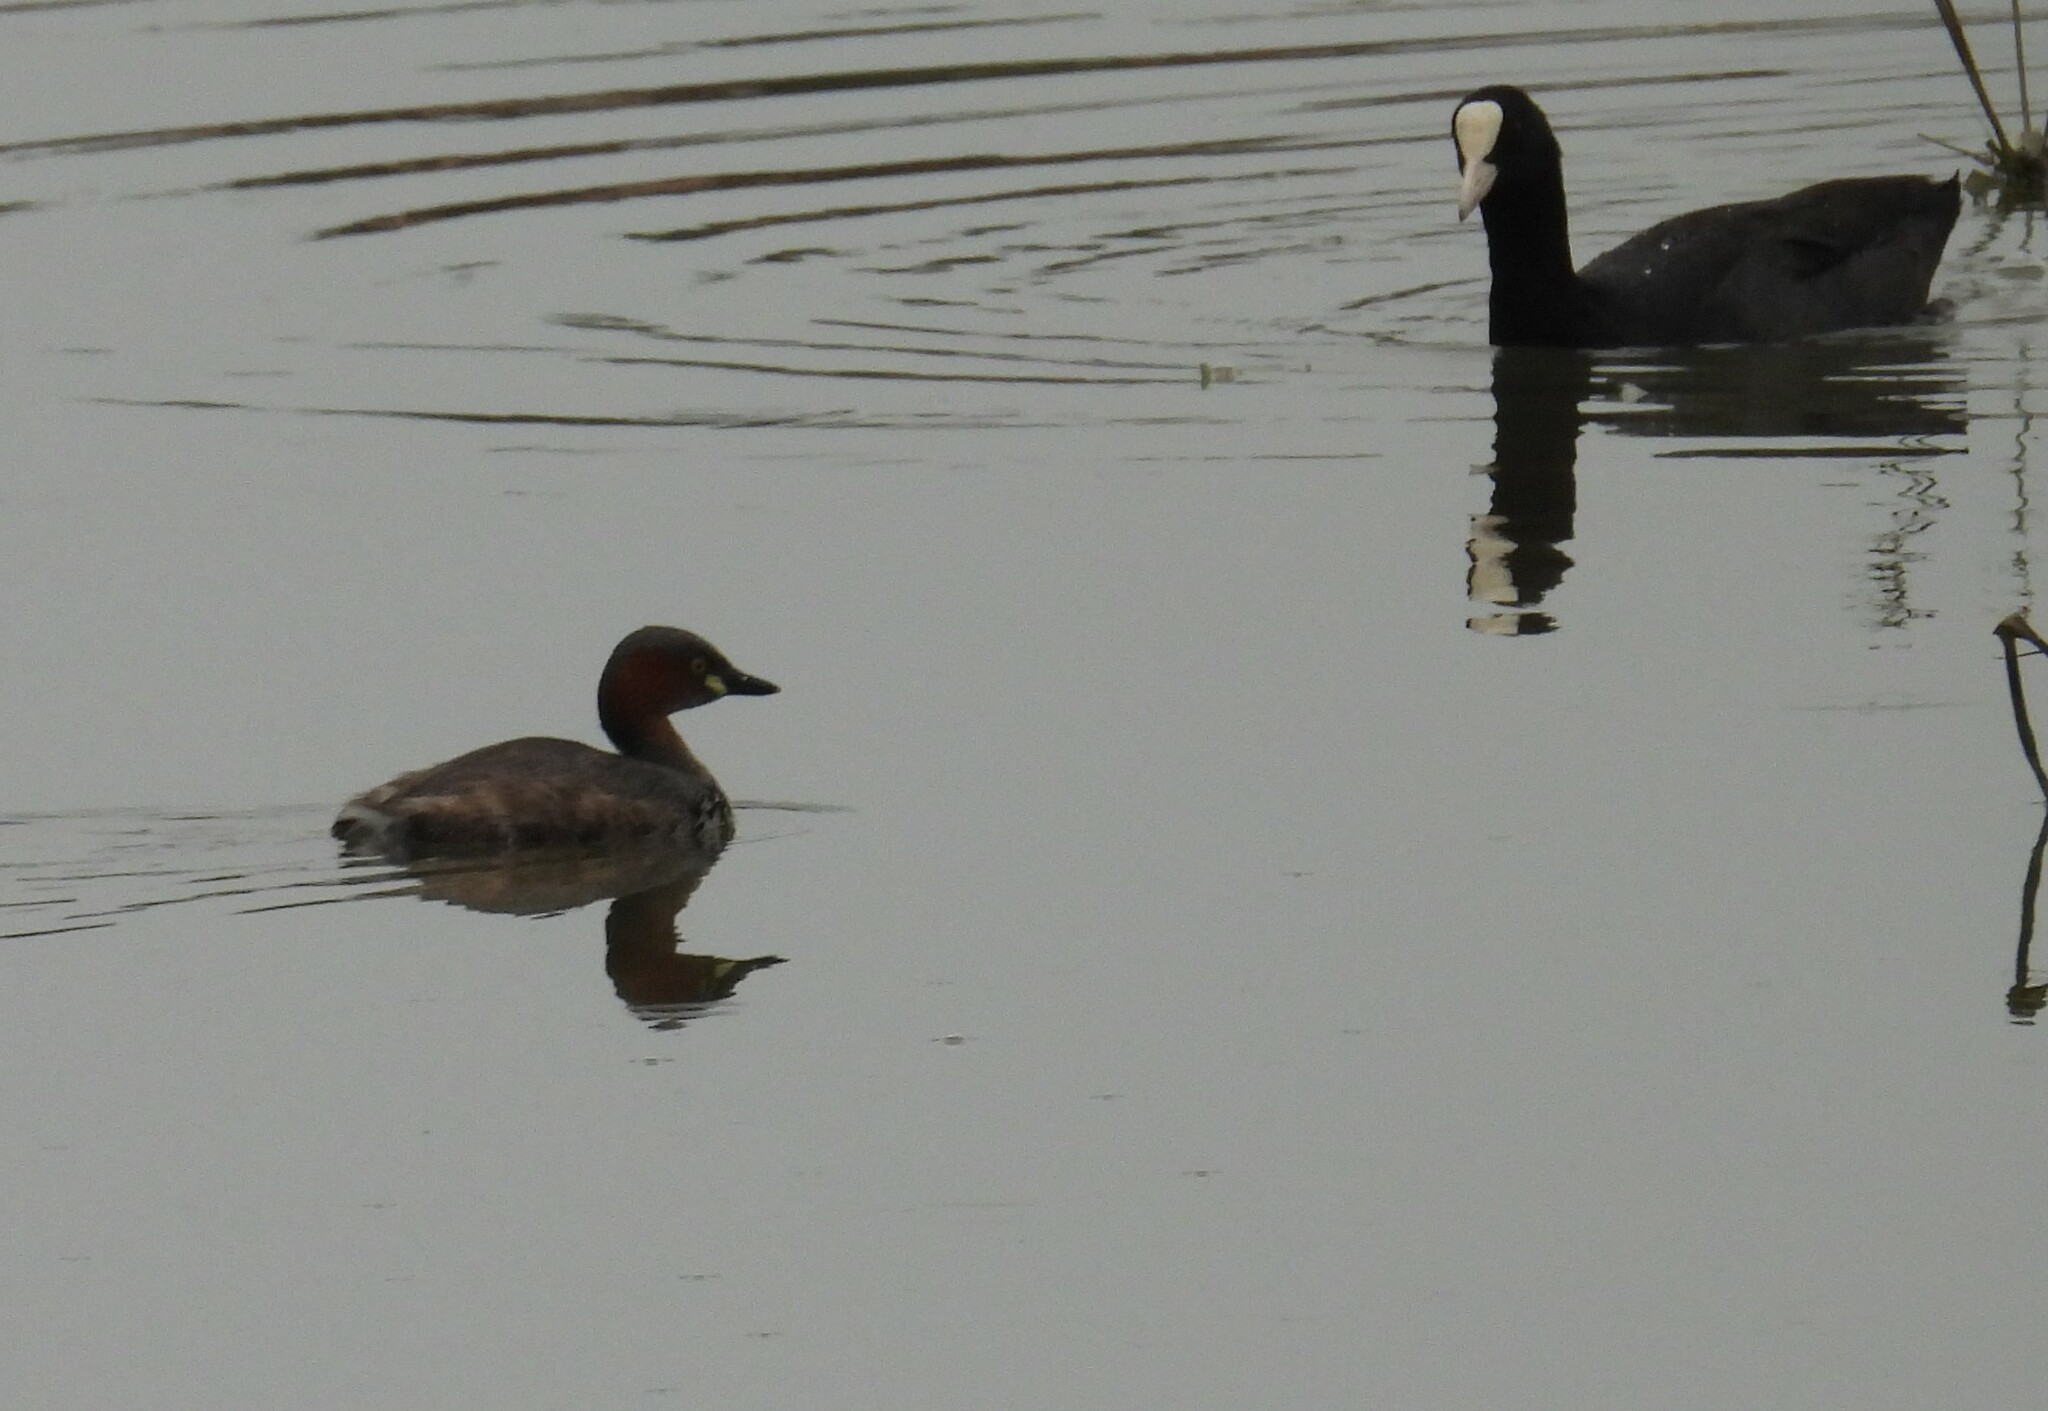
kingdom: Animalia
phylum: Chordata
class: Aves
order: Gruiformes
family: Rallidae
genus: Fulica
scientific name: Fulica atra
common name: Eurasian coot
